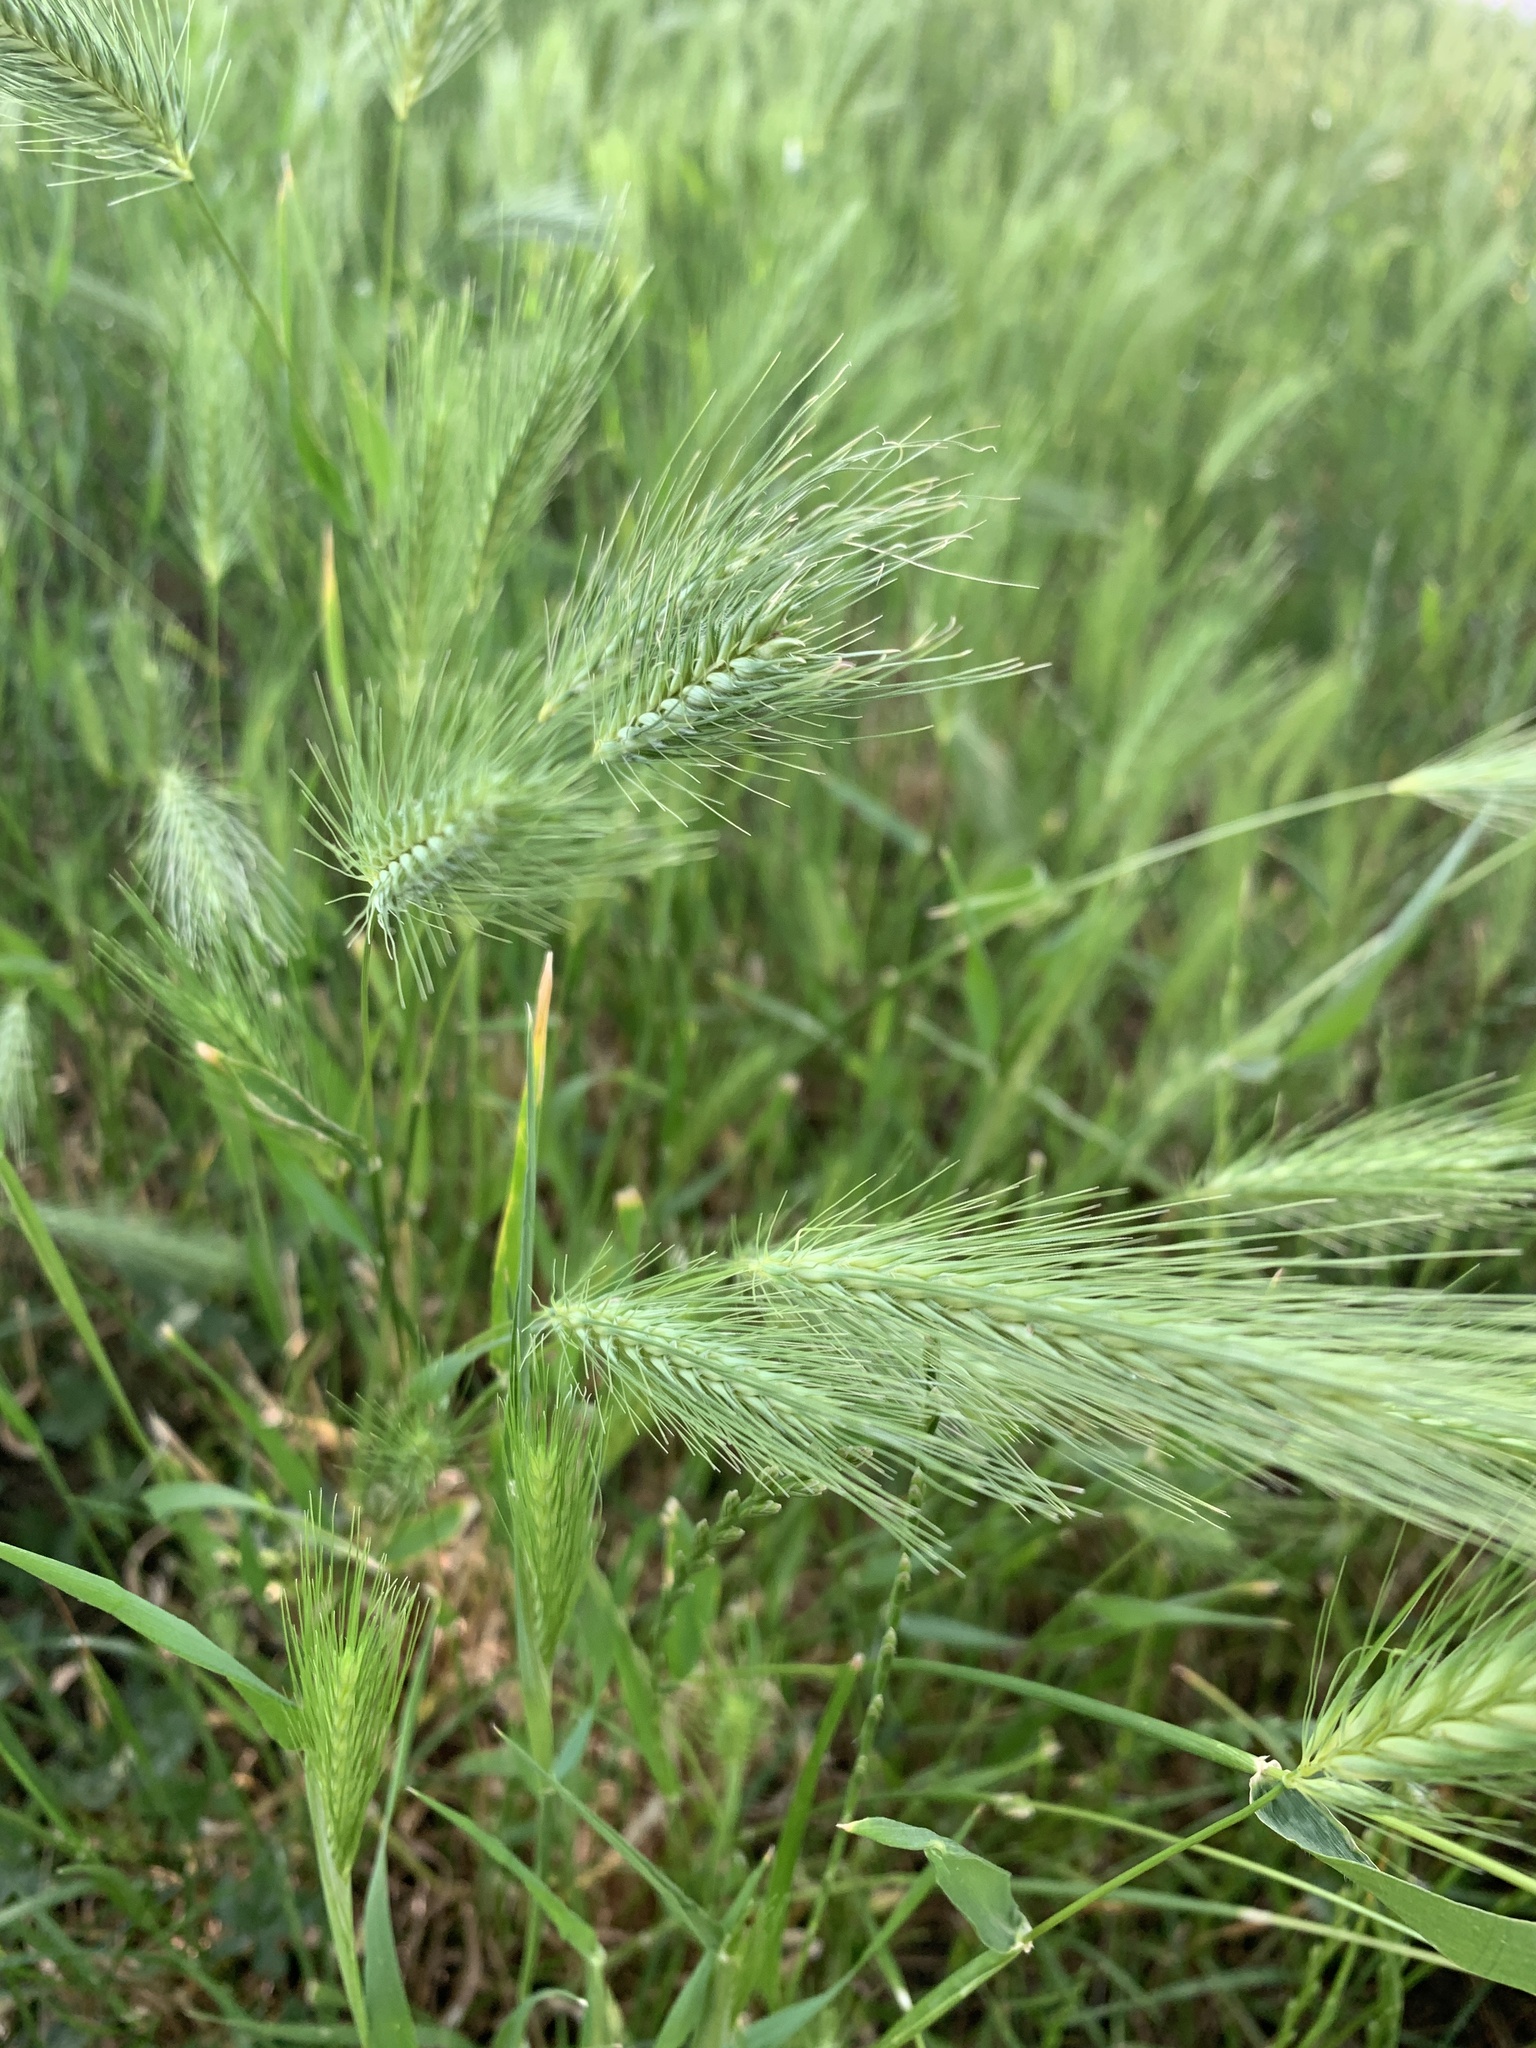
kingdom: Plantae
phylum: Tracheophyta
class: Liliopsida
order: Poales
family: Poaceae
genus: Hordeum
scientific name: Hordeum murinum
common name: Wall barley
